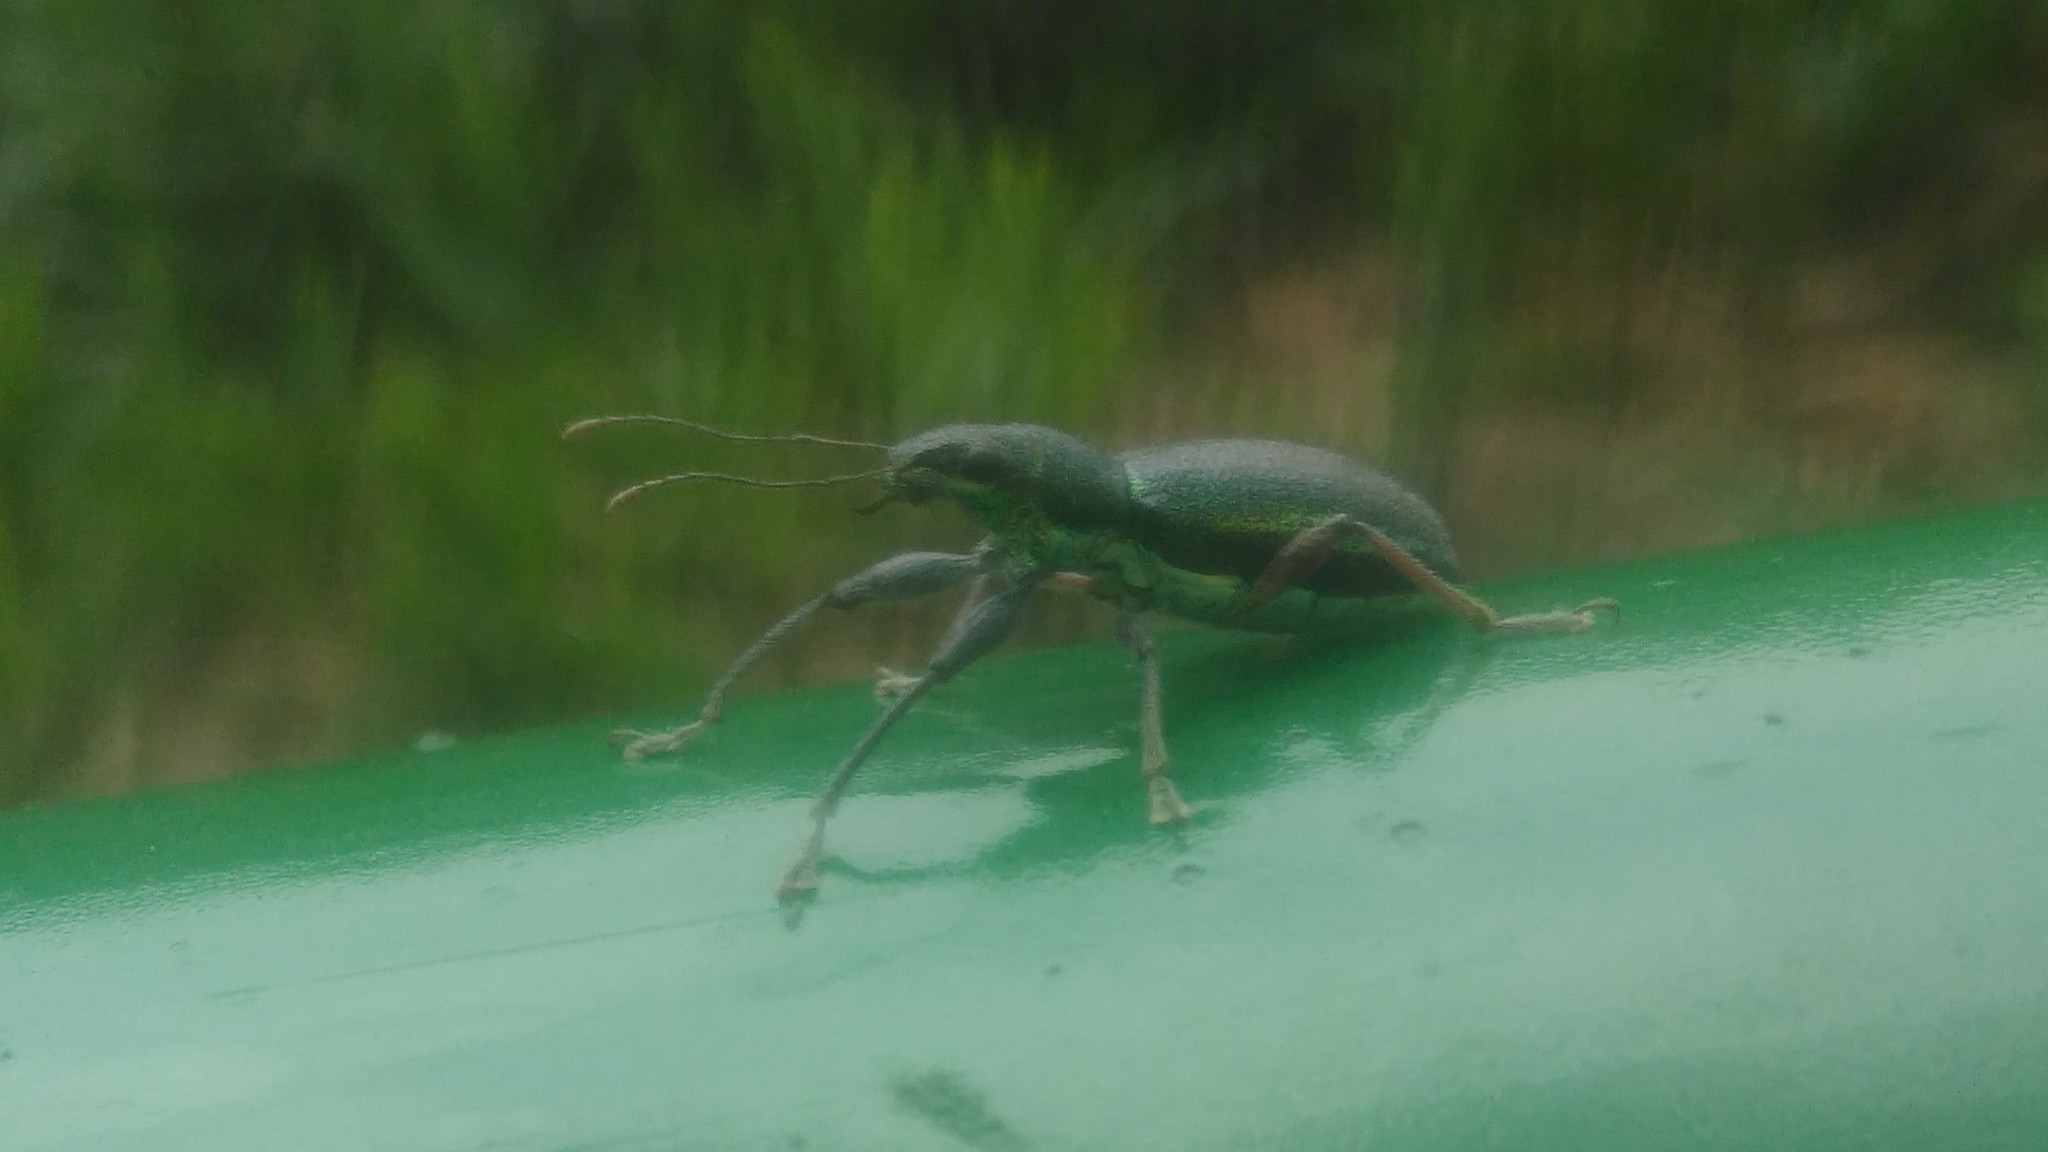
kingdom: Animalia
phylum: Arthropoda
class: Insecta
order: Coleoptera
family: Curculionidae
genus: Naupactus
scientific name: Naupactus auricinctus
